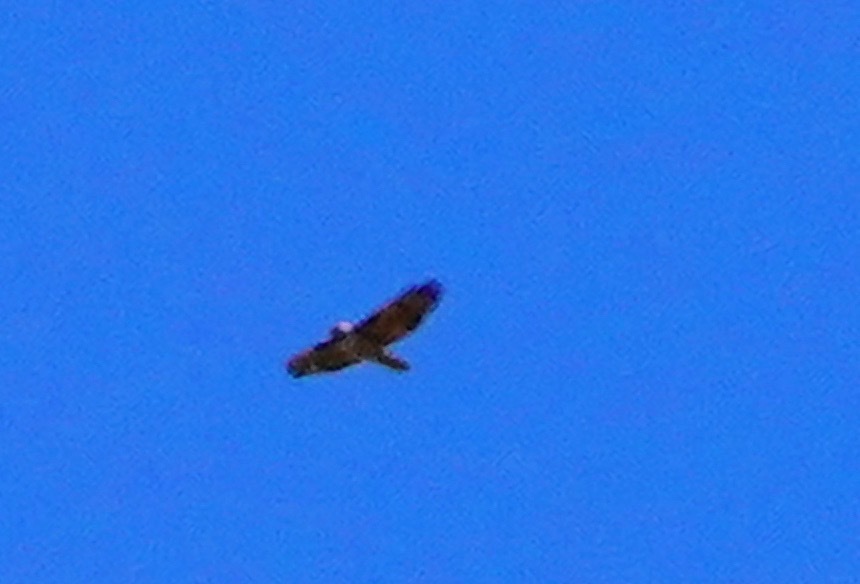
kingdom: Animalia
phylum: Chordata
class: Aves
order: Accipitriformes
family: Accipitridae
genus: Buteo
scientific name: Buteo jamaicensis
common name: Red-tailed hawk
